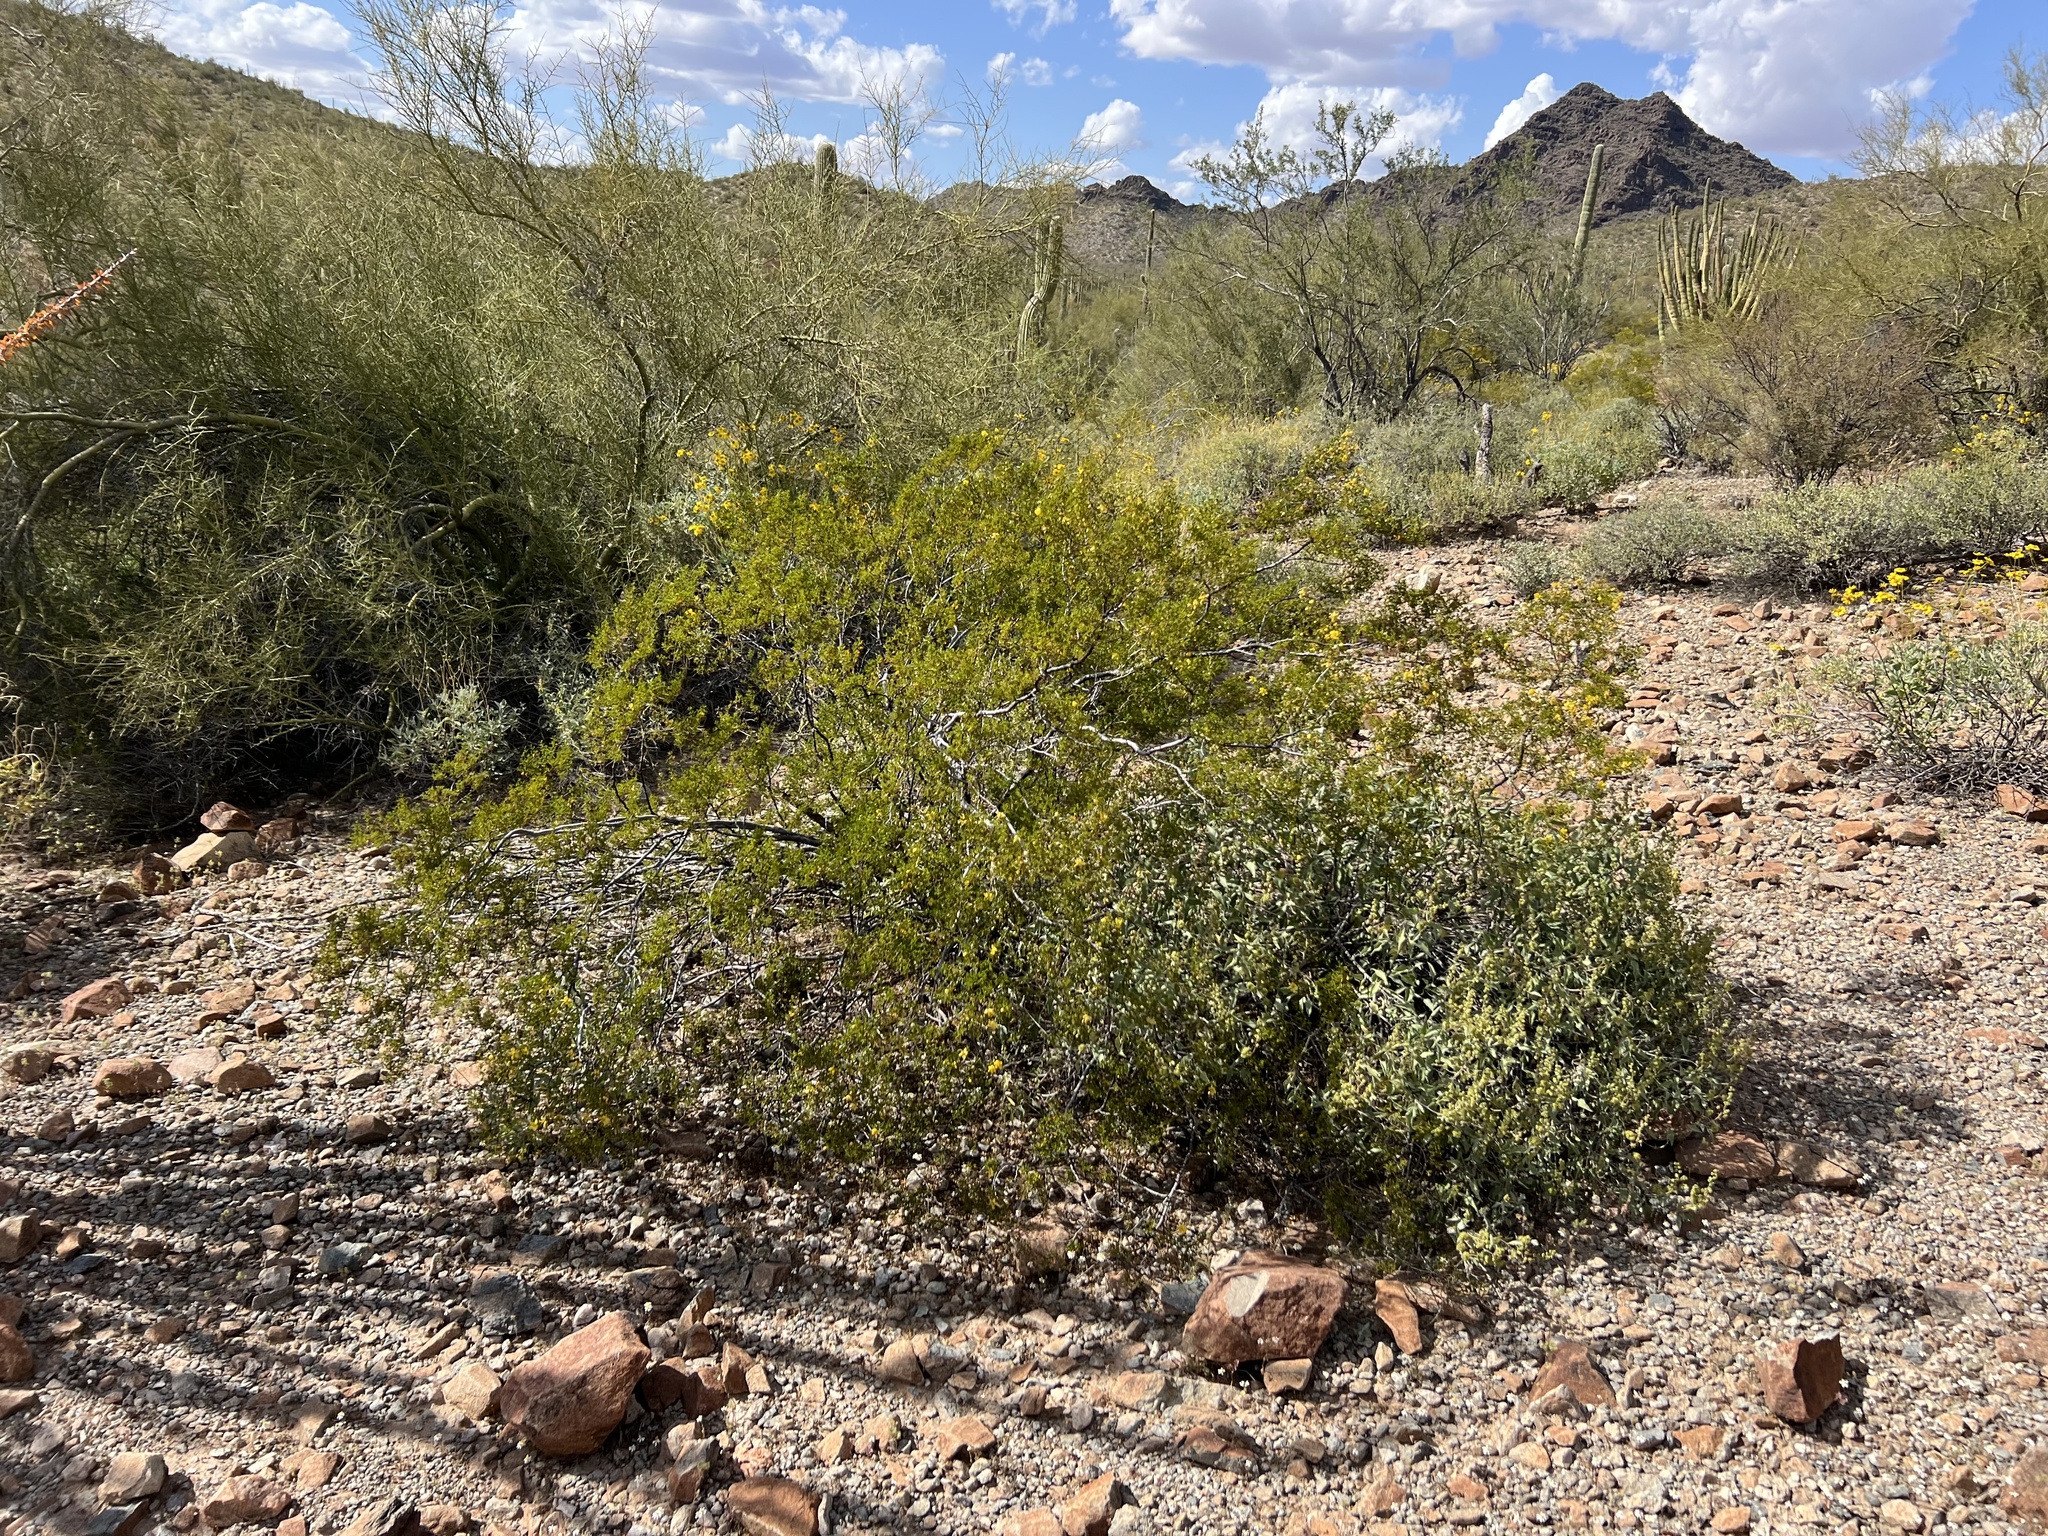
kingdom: Plantae
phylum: Tracheophyta
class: Magnoliopsida
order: Zygophyllales
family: Zygophyllaceae
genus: Larrea
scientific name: Larrea tridentata
